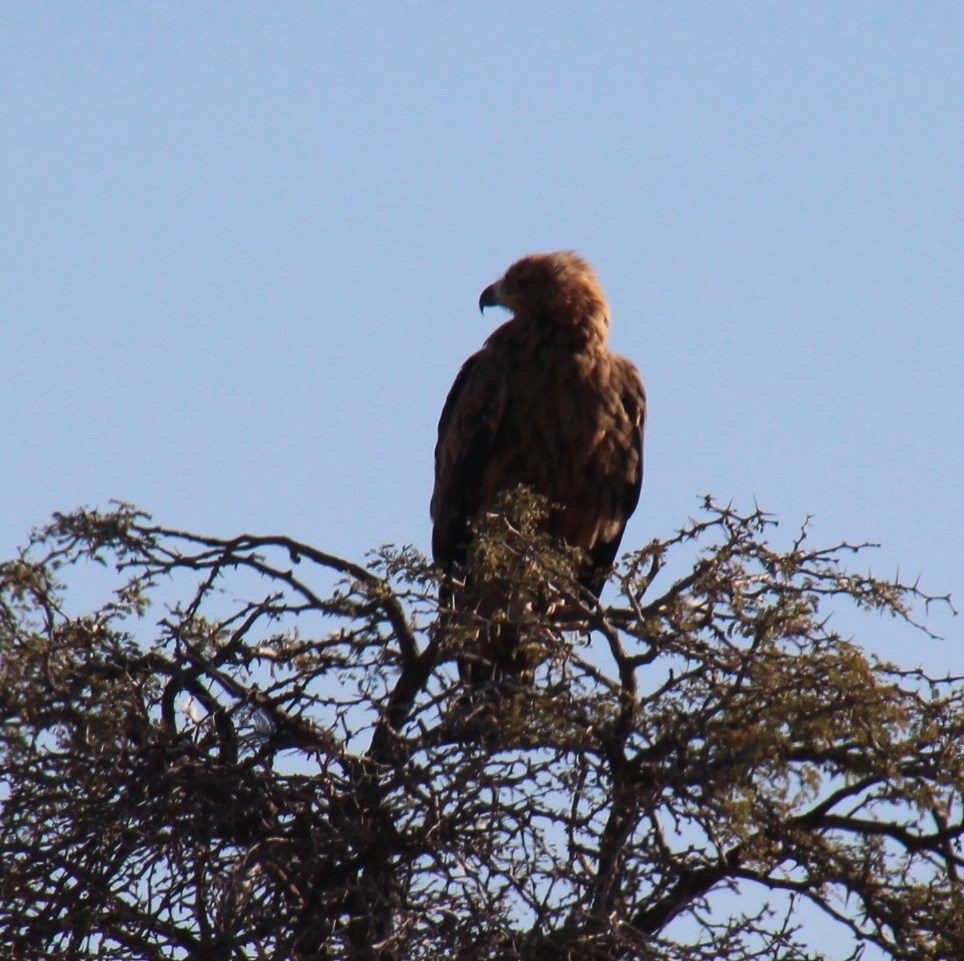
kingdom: Animalia
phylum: Chordata
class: Aves
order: Accipitriformes
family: Accipitridae
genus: Aquila
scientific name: Aquila rapax
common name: Tawny eagle
